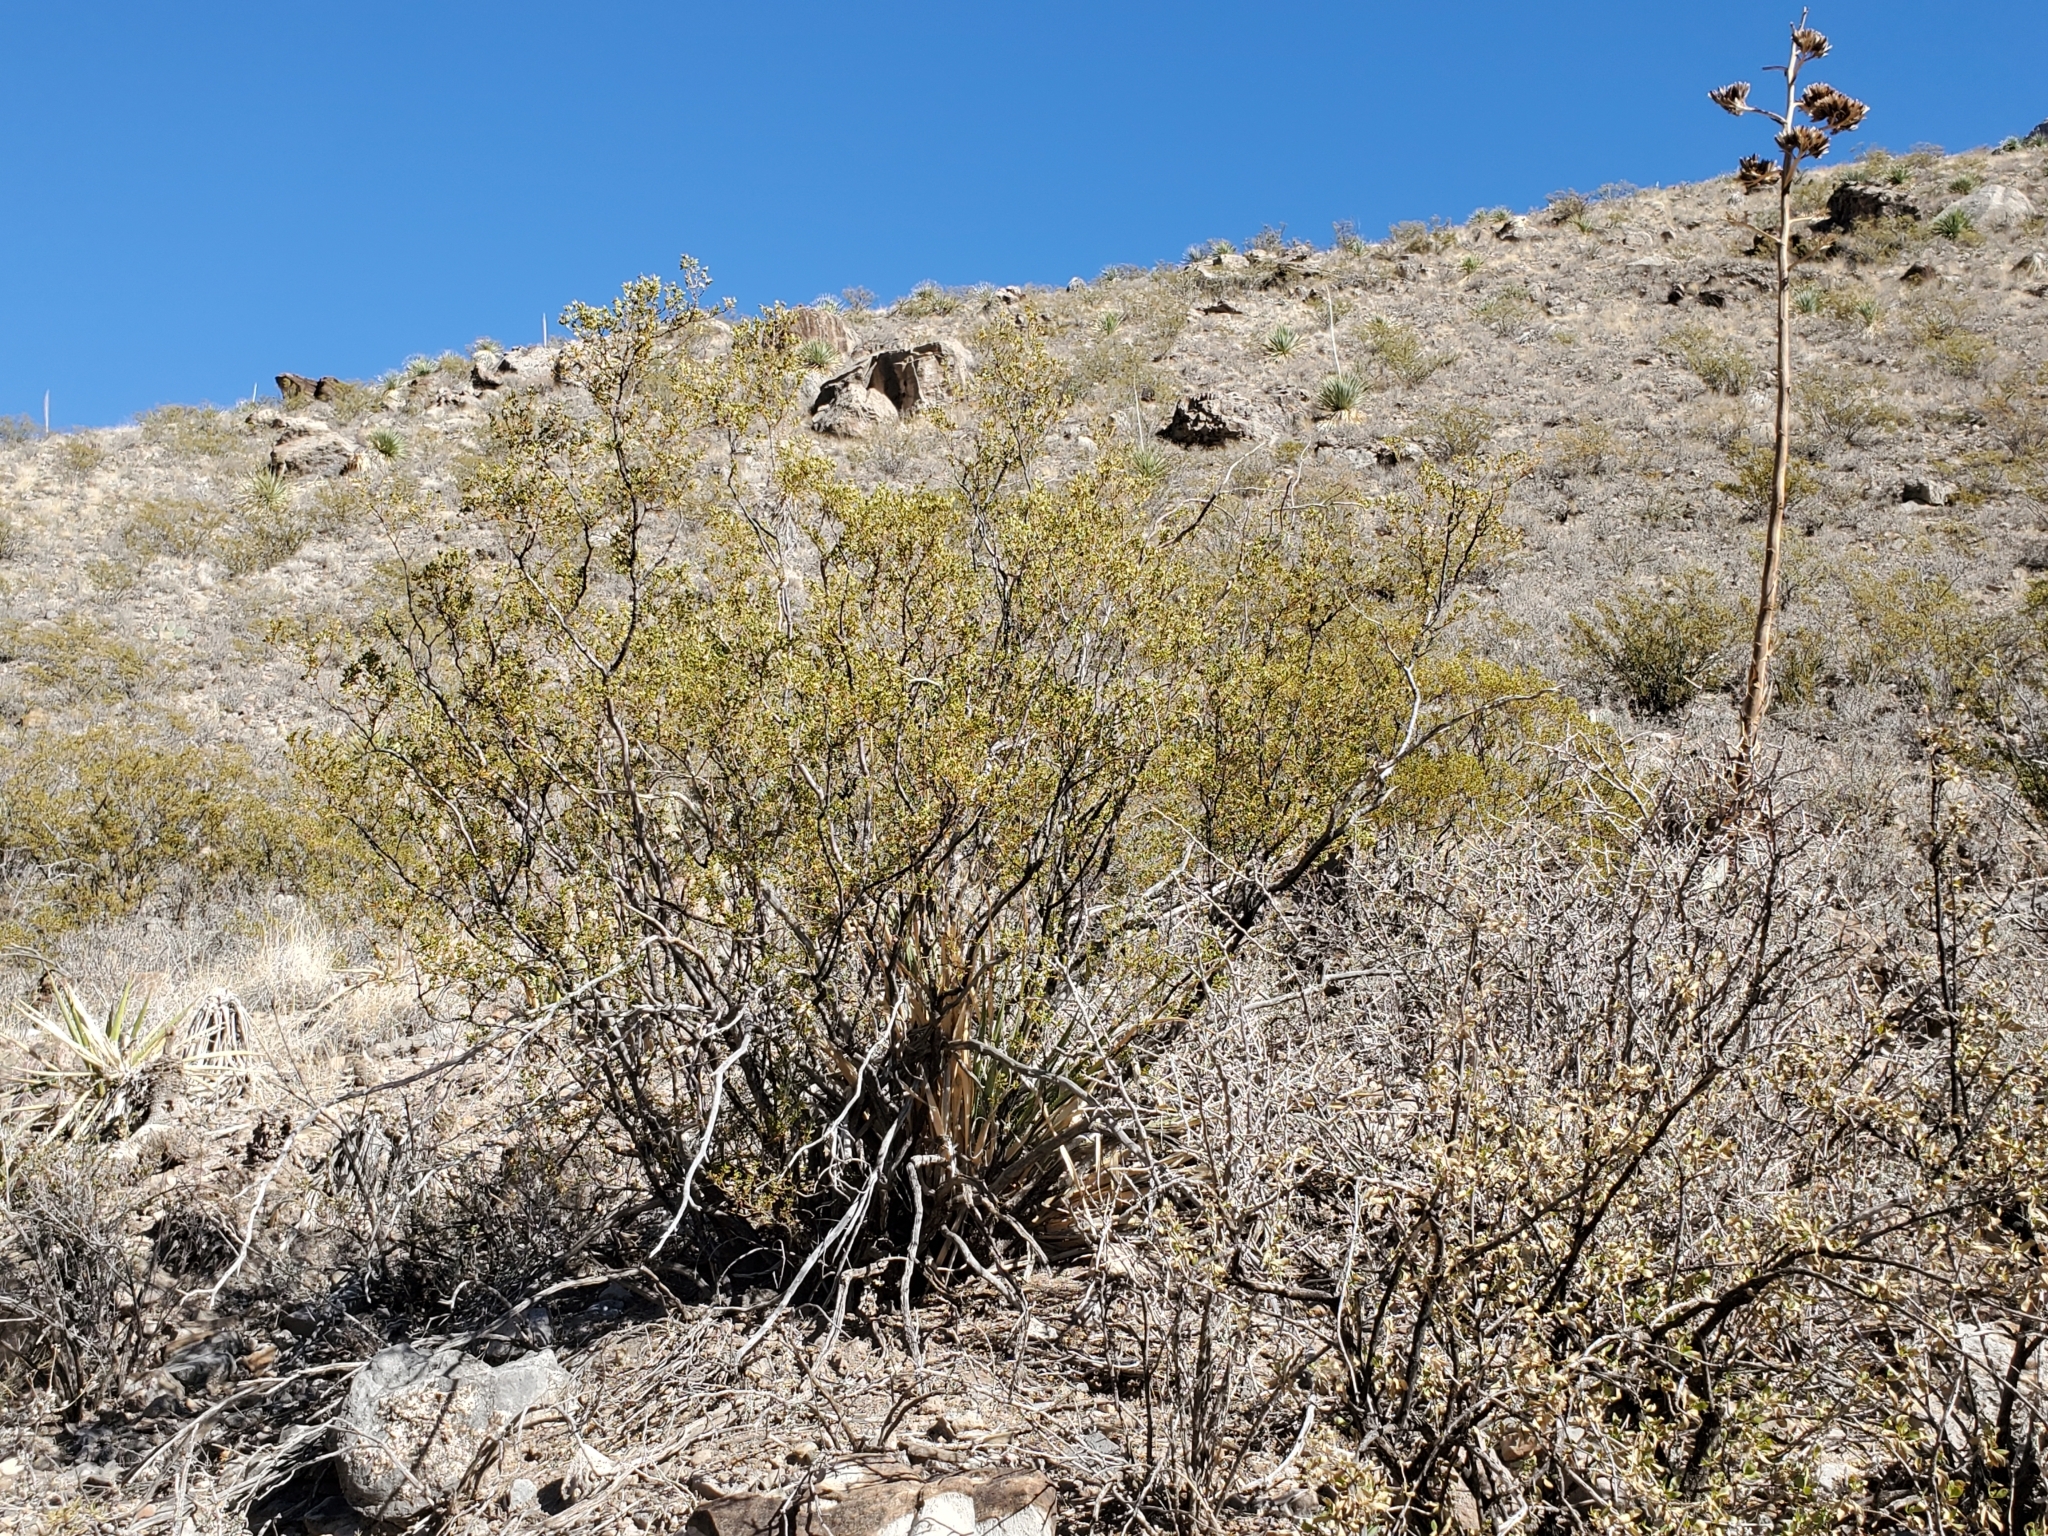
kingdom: Plantae
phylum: Tracheophyta
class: Magnoliopsida
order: Zygophyllales
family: Zygophyllaceae
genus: Larrea
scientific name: Larrea tridentata
